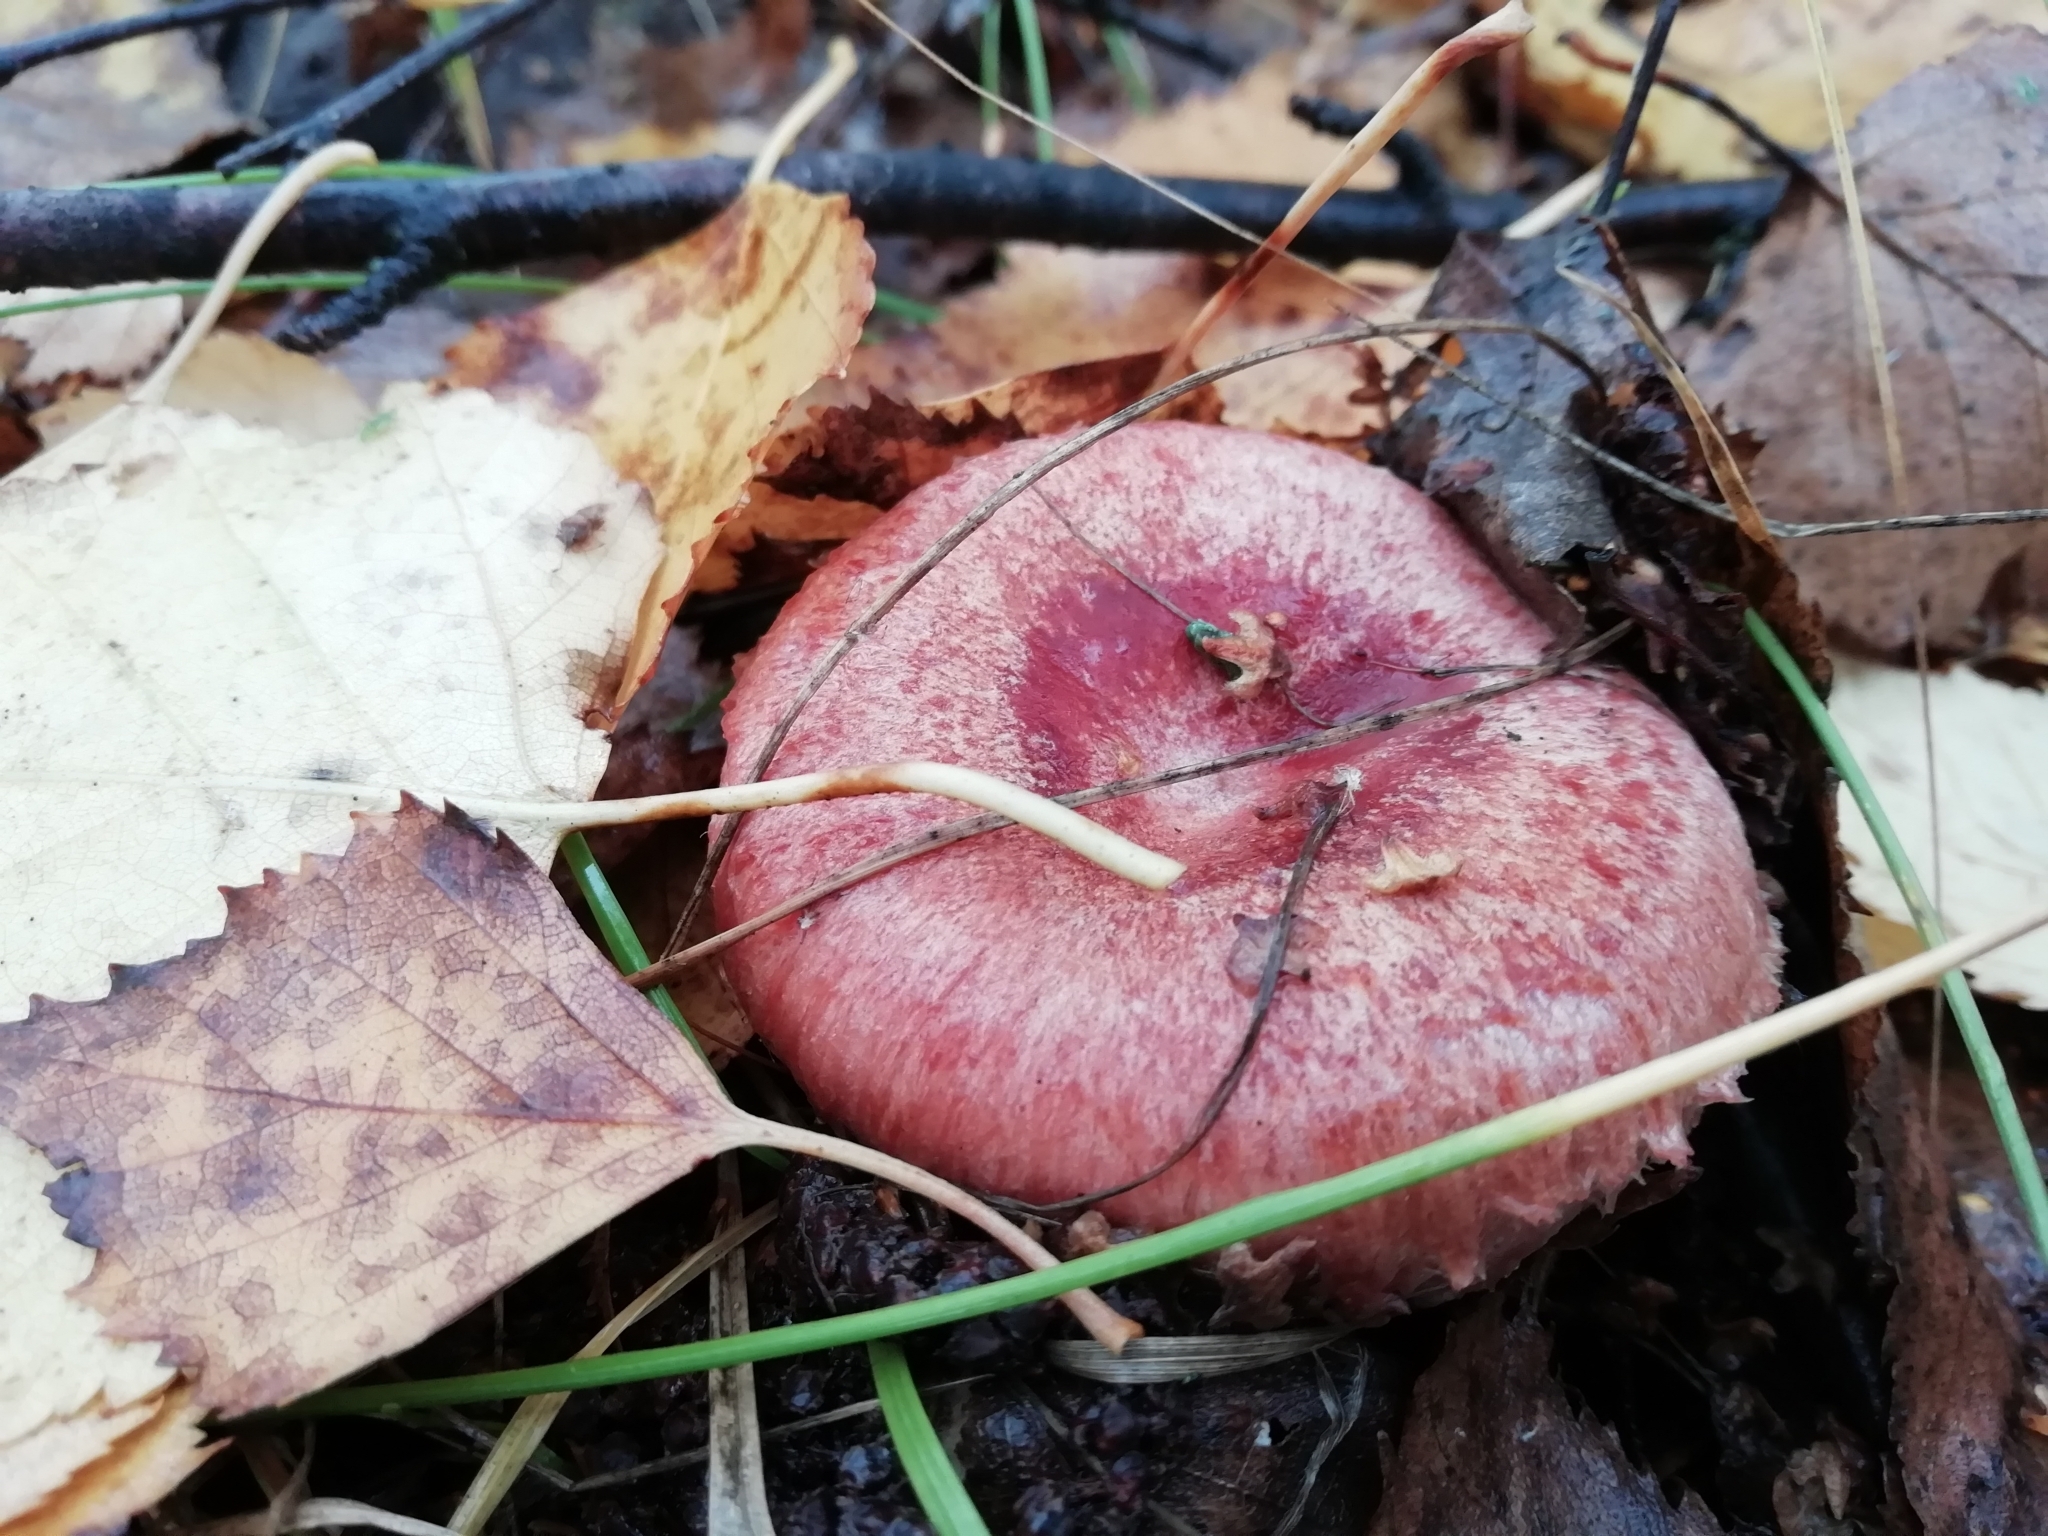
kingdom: Fungi
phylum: Basidiomycota
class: Agaricomycetes
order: Russulales
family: Russulaceae
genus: Lactarius
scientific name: Lactarius torminosus
